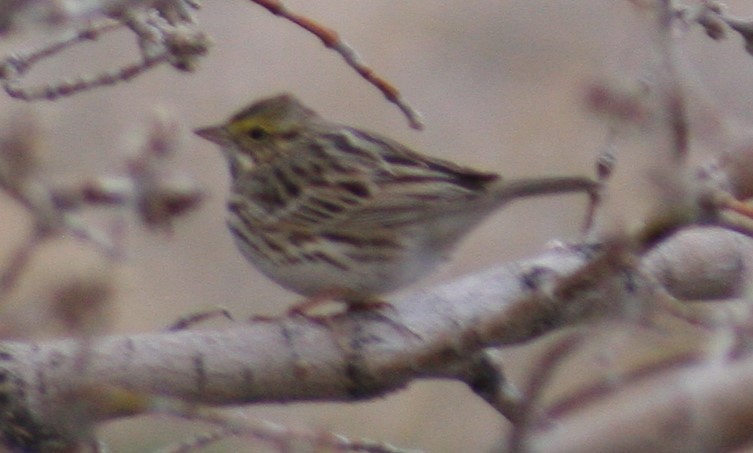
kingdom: Animalia
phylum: Chordata
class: Aves
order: Passeriformes
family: Passerellidae
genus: Passerculus
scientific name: Passerculus sandwichensis
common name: Savannah sparrow
